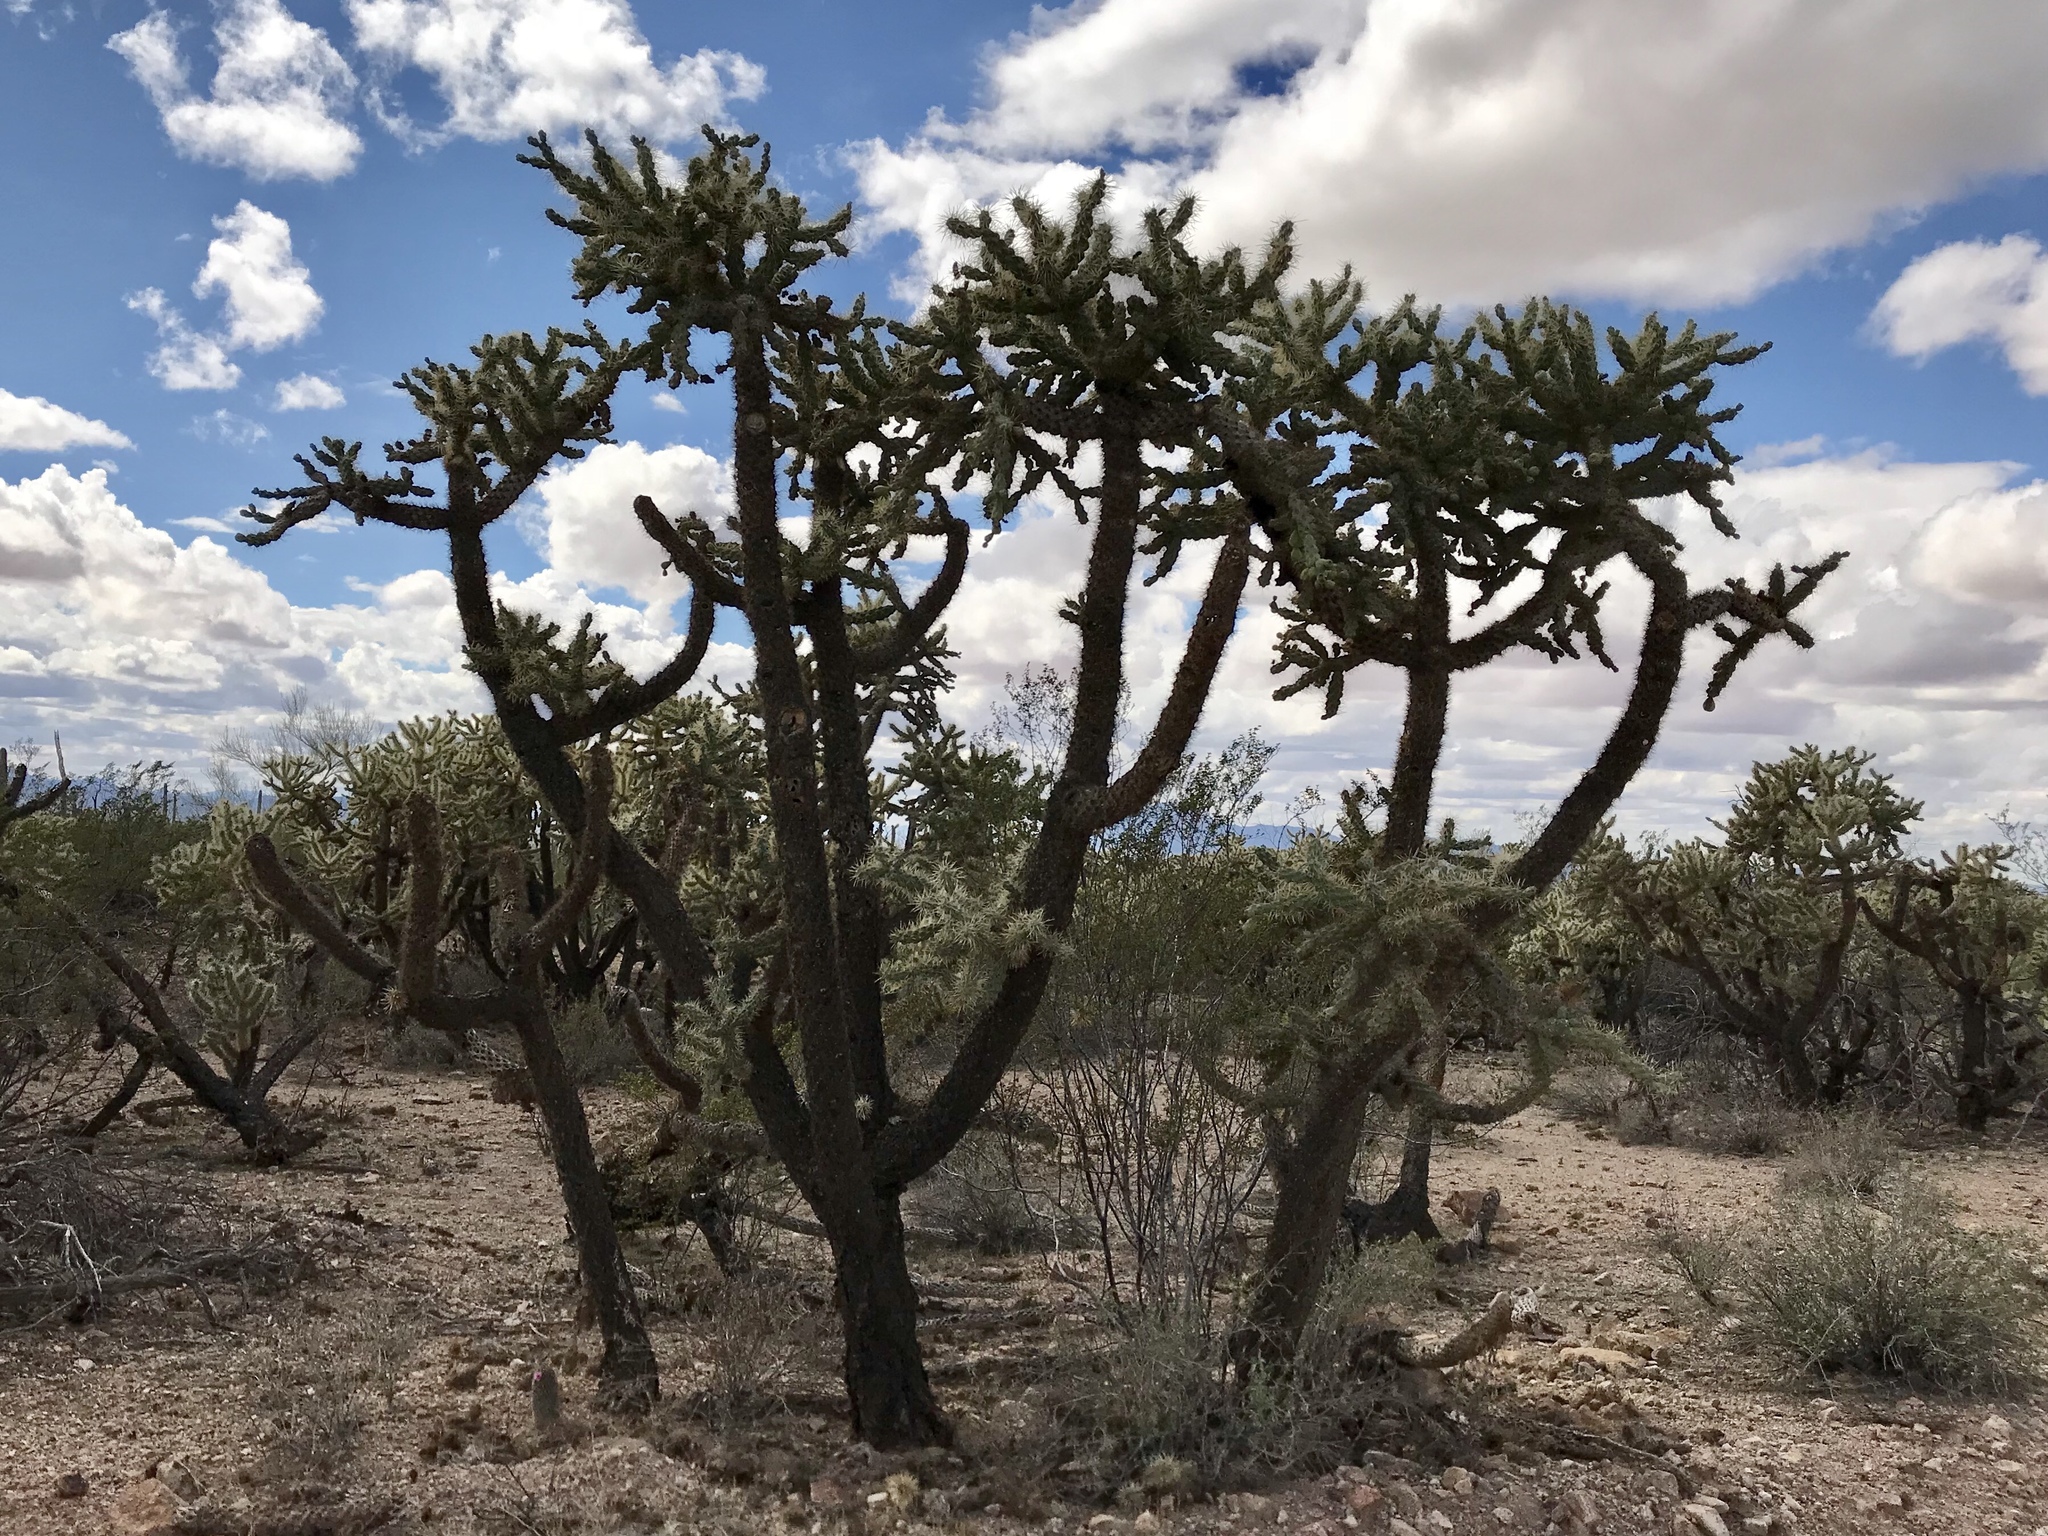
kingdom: Plantae
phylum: Tracheophyta
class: Magnoliopsida
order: Caryophyllales
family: Cactaceae
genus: Cylindropuntia
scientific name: Cylindropuntia fulgida
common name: Jumping cholla
